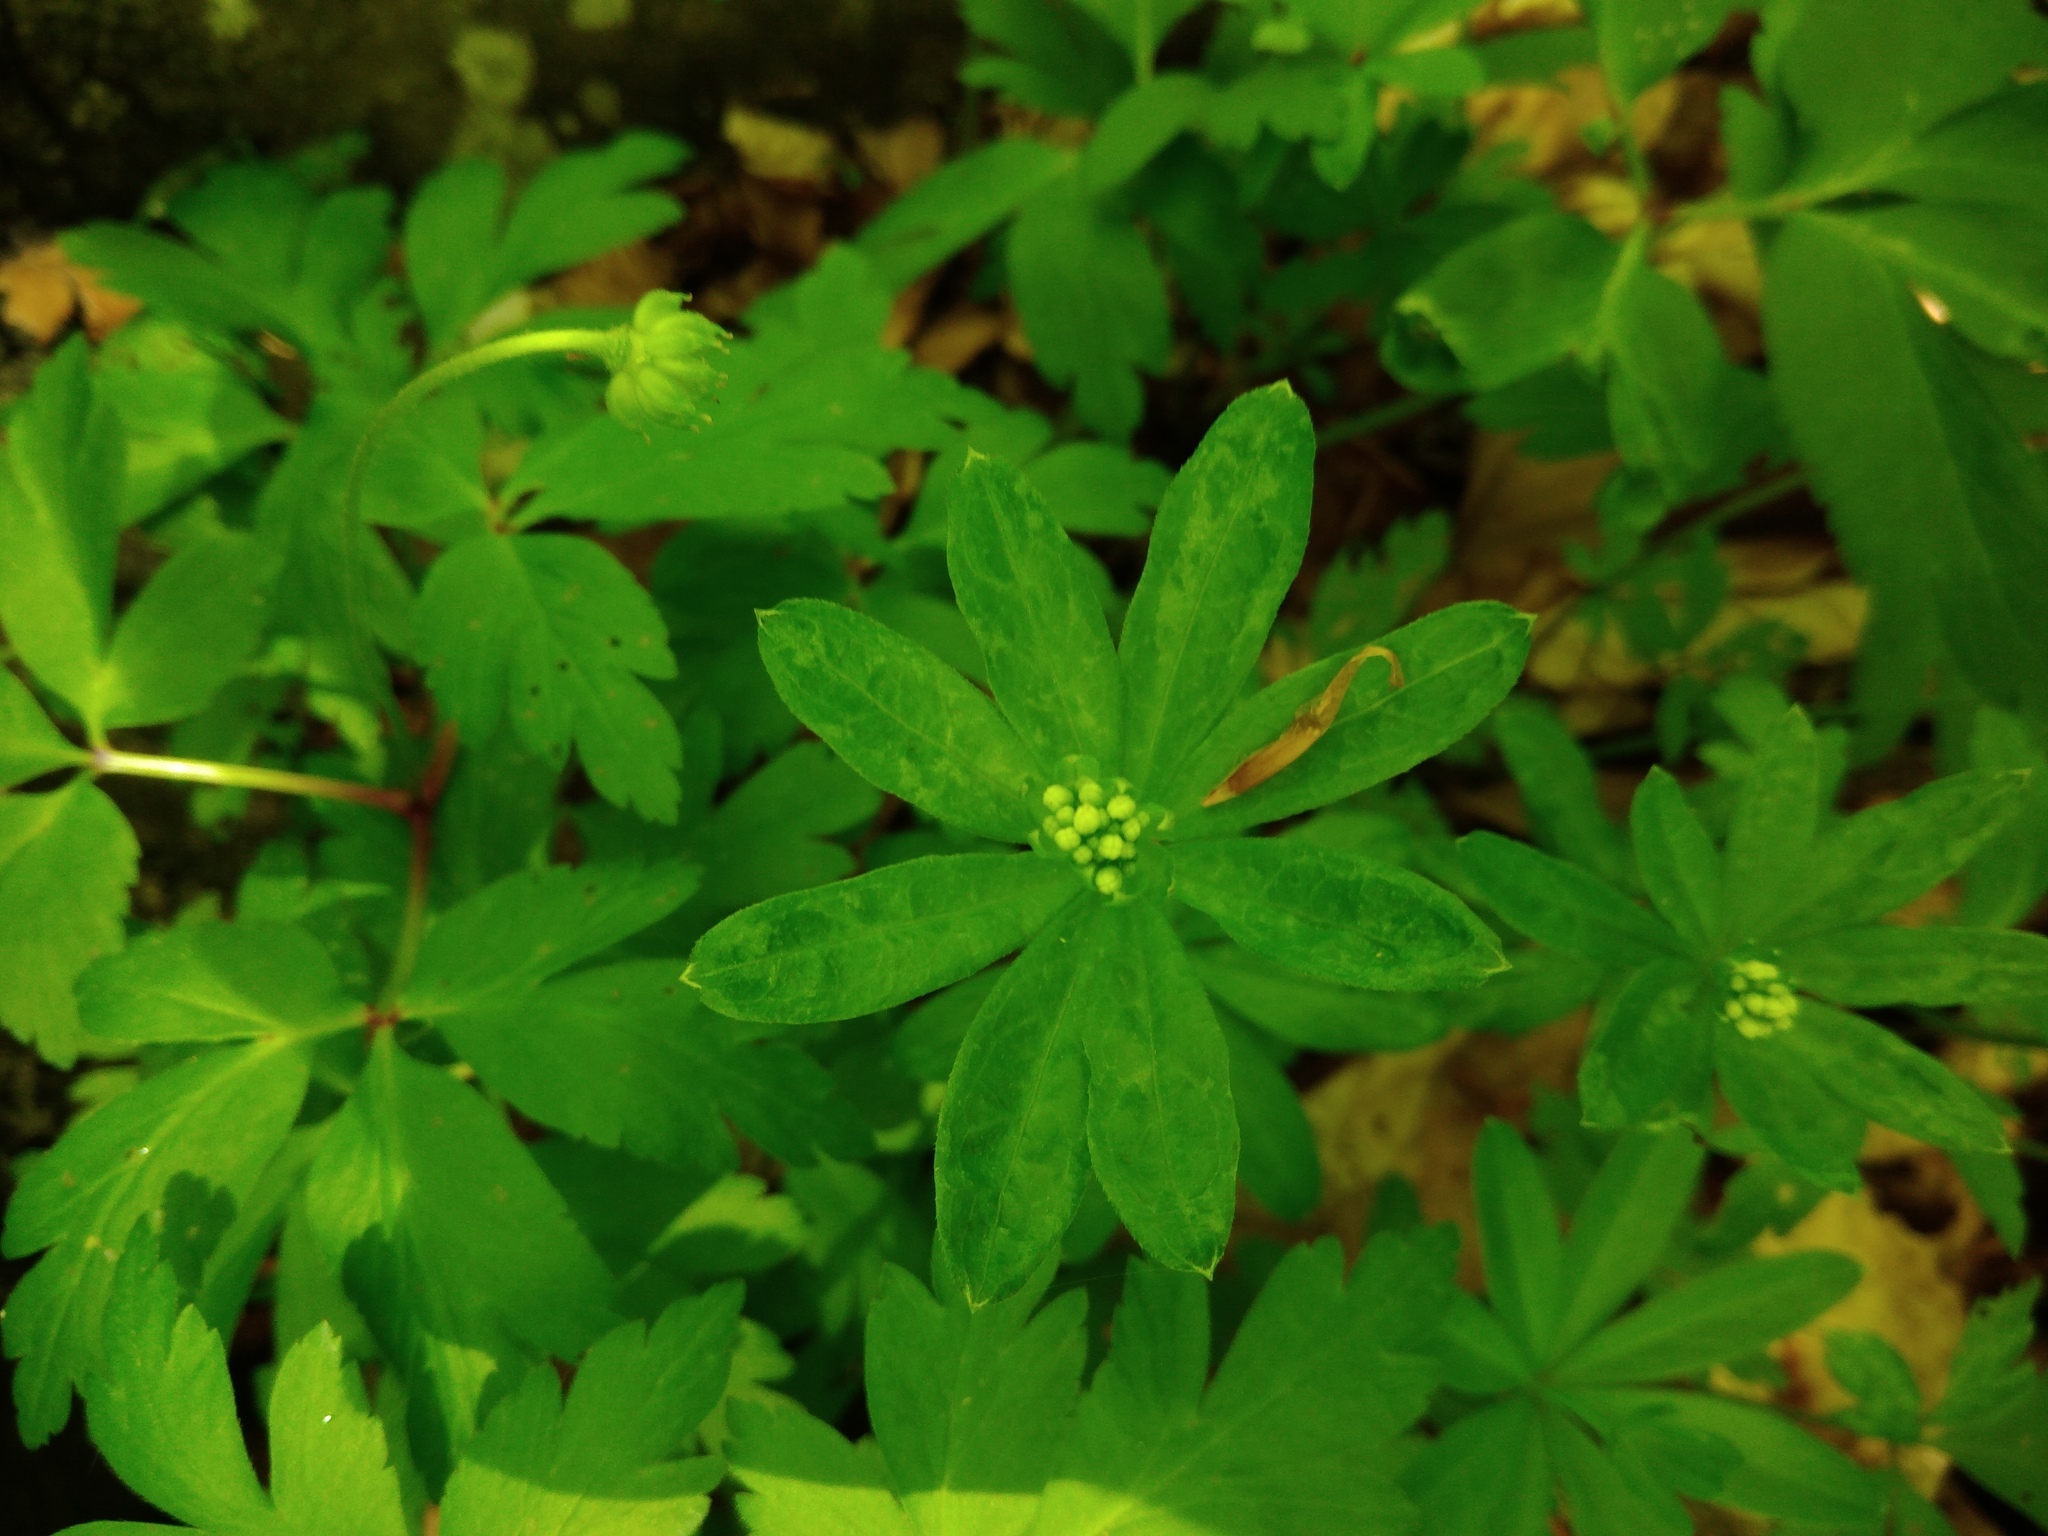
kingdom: Plantae
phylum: Tracheophyta
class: Magnoliopsida
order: Gentianales
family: Rubiaceae
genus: Galium
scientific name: Galium odoratum
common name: Sweet woodruff
